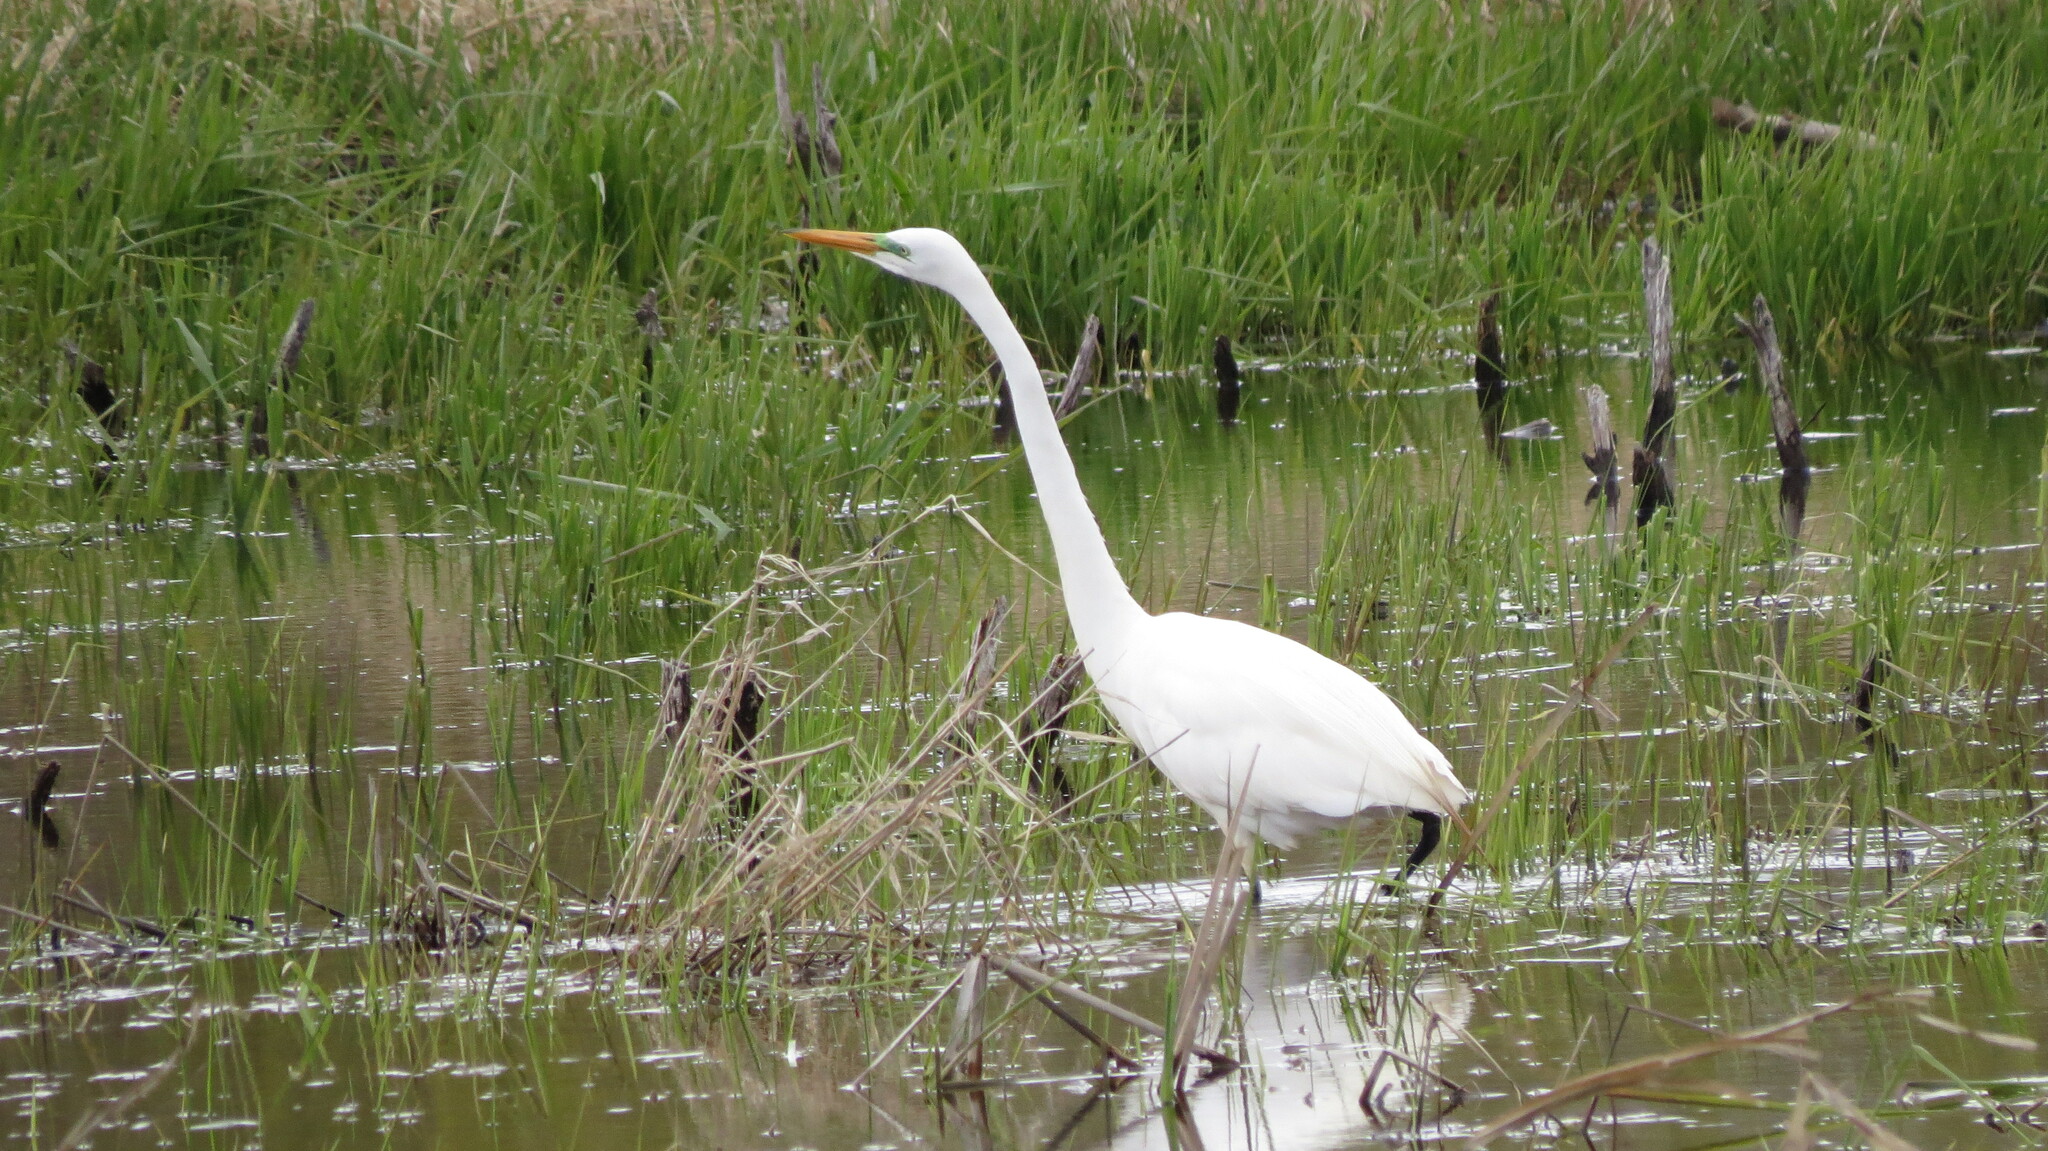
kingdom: Animalia
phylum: Chordata
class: Aves
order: Pelecaniformes
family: Ardeidae
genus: Ardea
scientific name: Ardea alba
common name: Great egret
